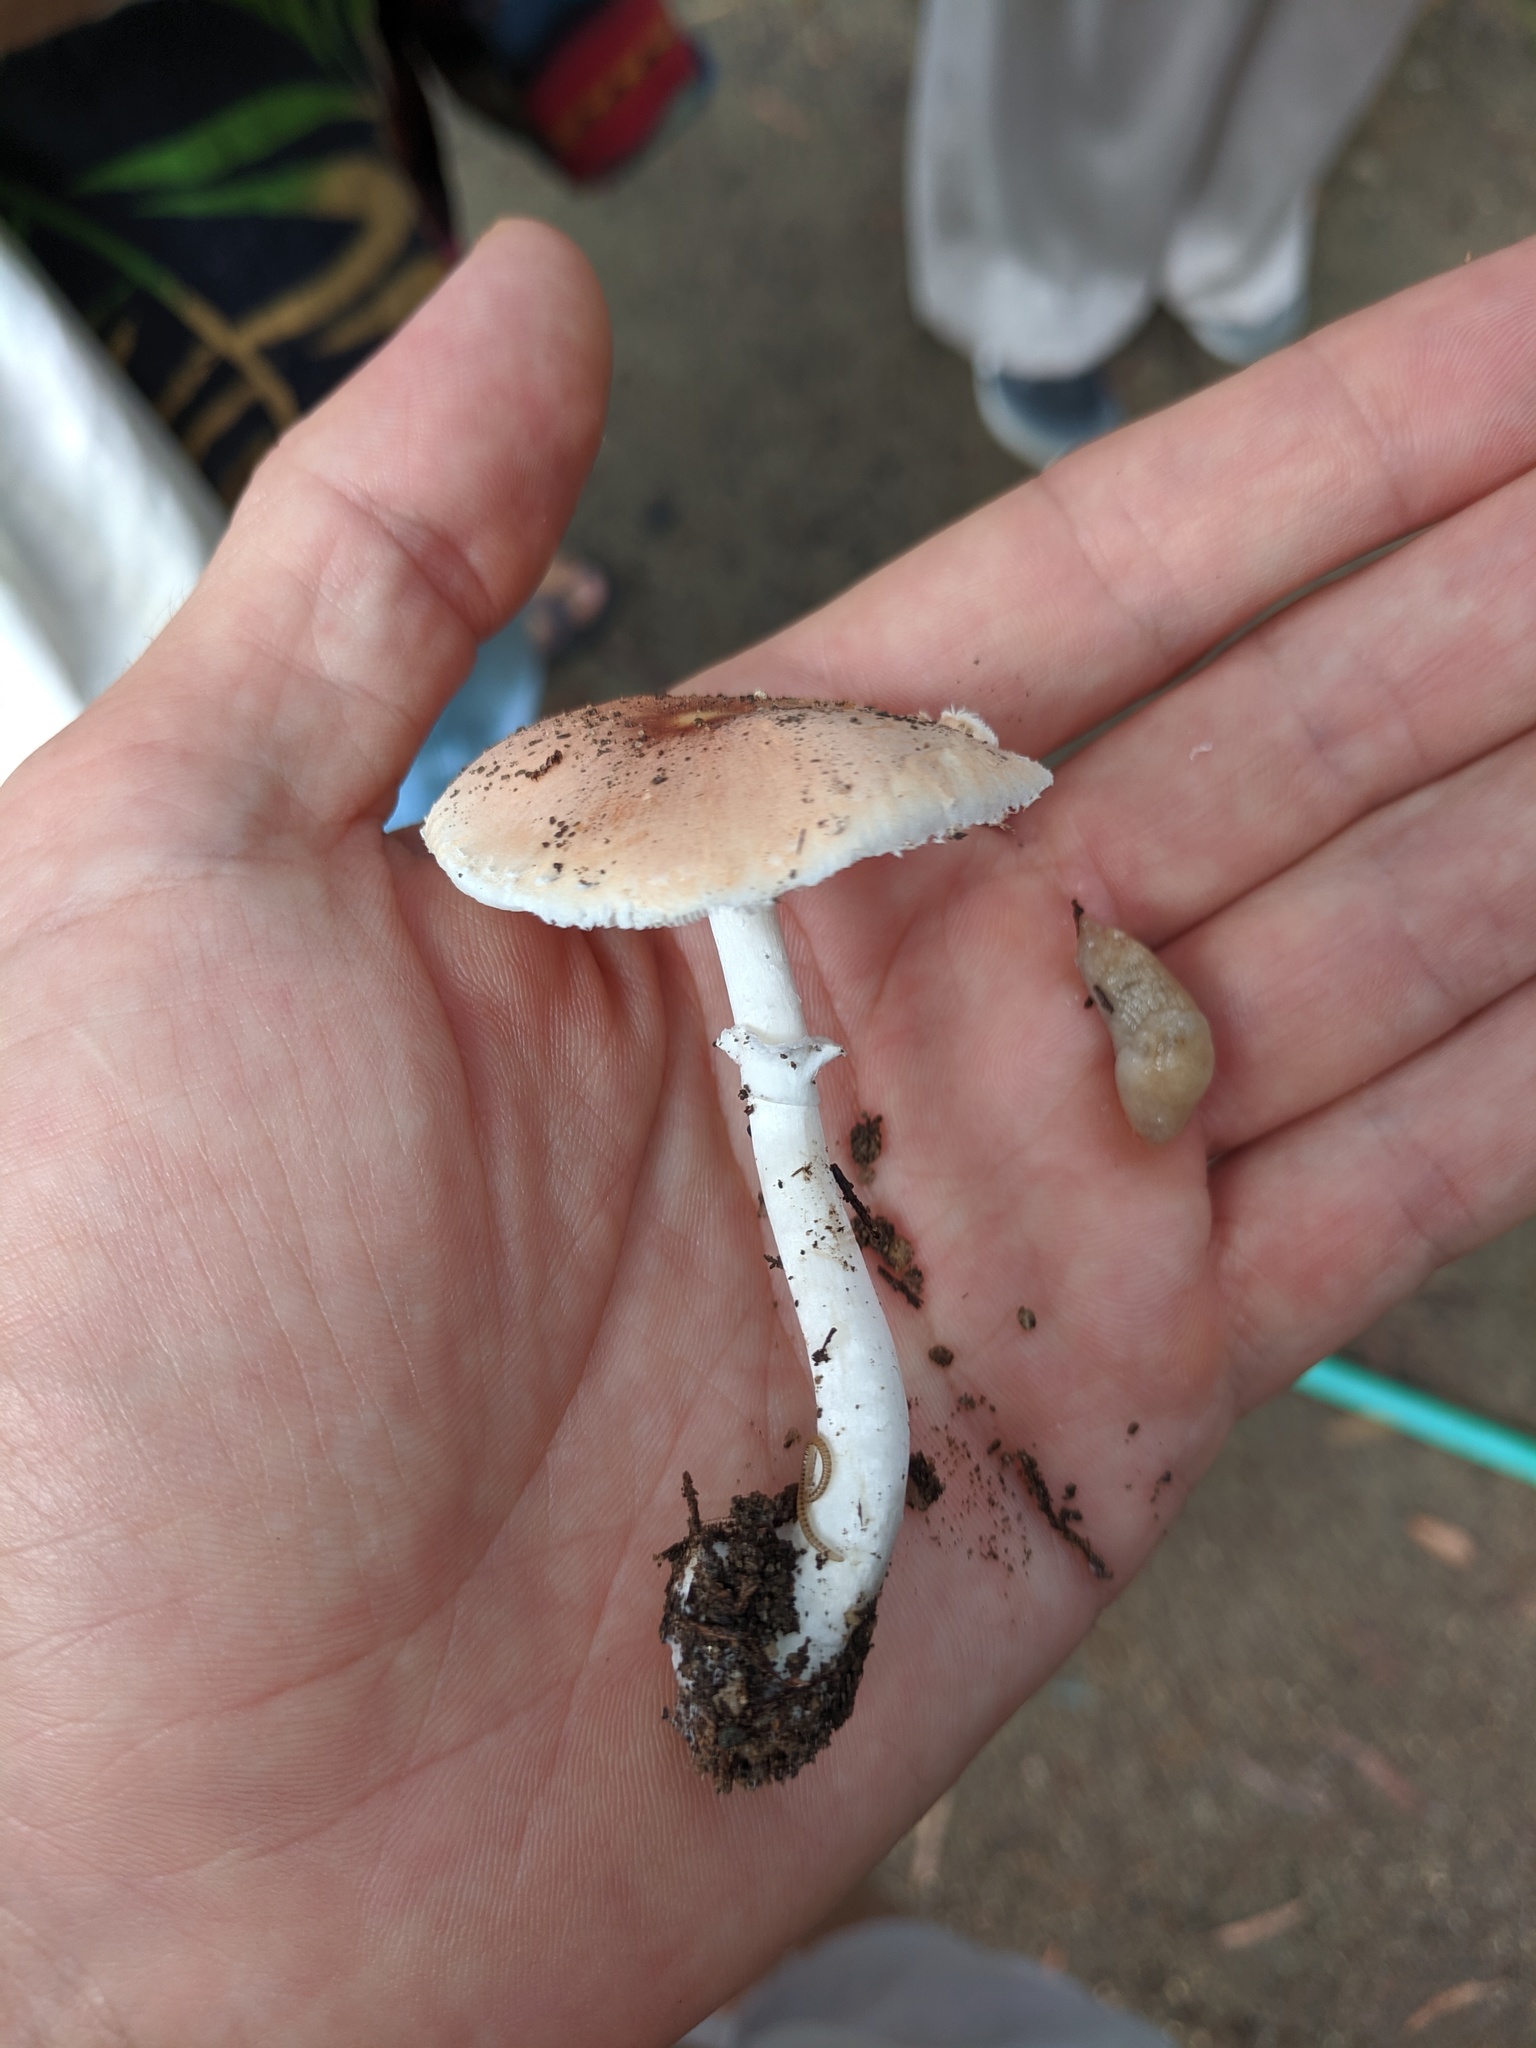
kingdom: Animalia
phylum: Mollusca
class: Gastropoda
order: Stylommatophora
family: Agriolimacidae
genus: Deroceras
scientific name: Deroceras reticulatum
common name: Gray field slug
